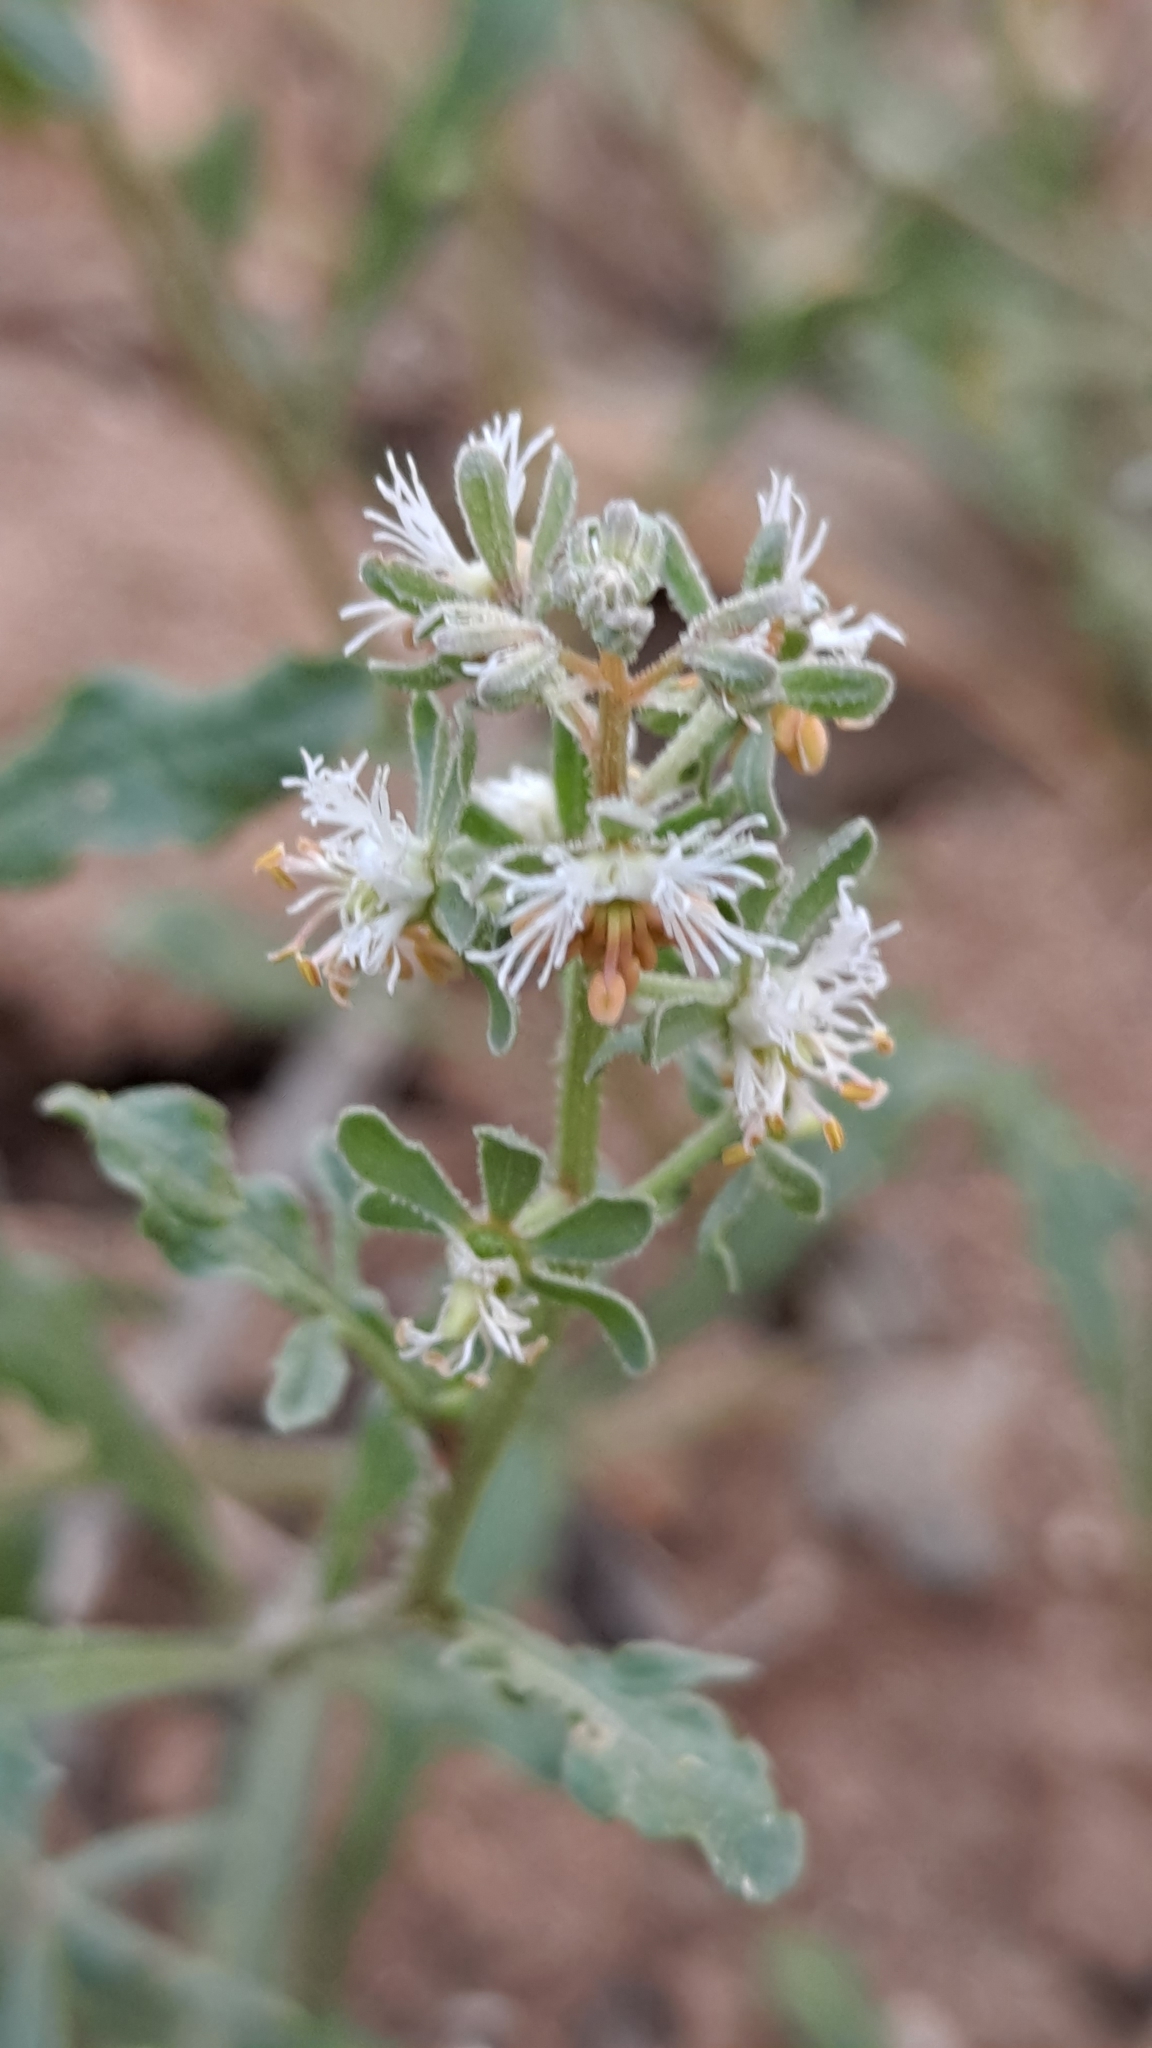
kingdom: Plantae
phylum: Tracheophyta
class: Magnoliopsida
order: Brassicales
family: Resedaceae
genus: Reseda
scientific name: Reseda phyteuma
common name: Corn mignonette
